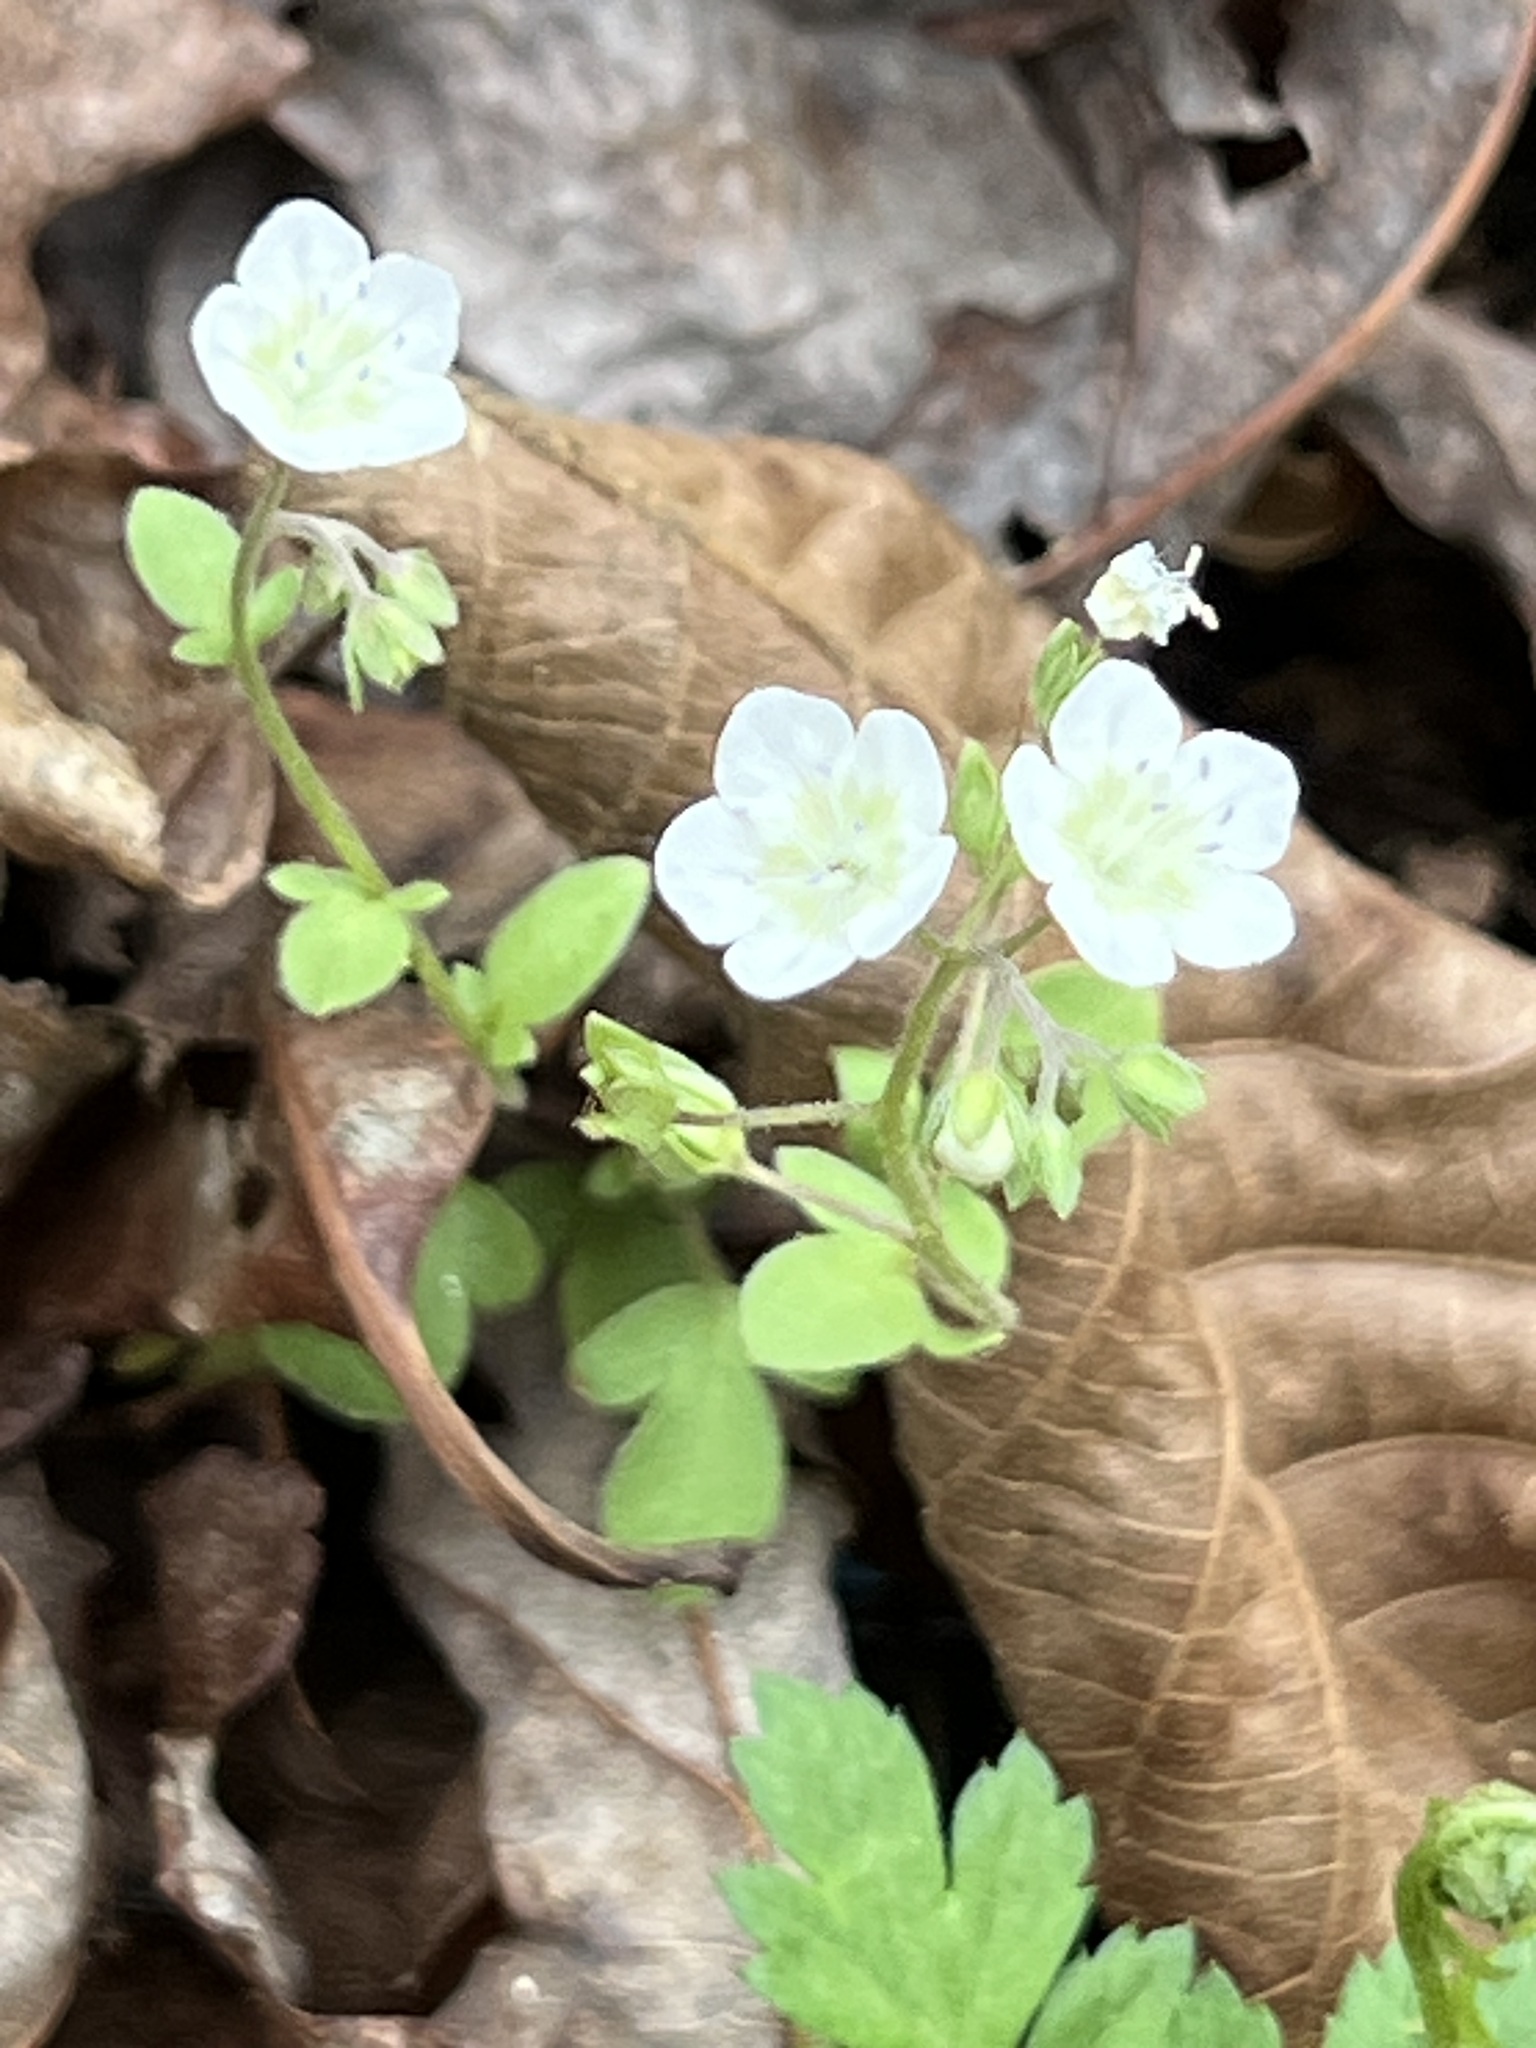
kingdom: Plantae
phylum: Tracheophyta
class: Magnoliopsida
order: Boraginales
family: Hydrophyllaceae
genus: Phacelia
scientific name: Phacelia dubia
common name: Appalachian phacelia
